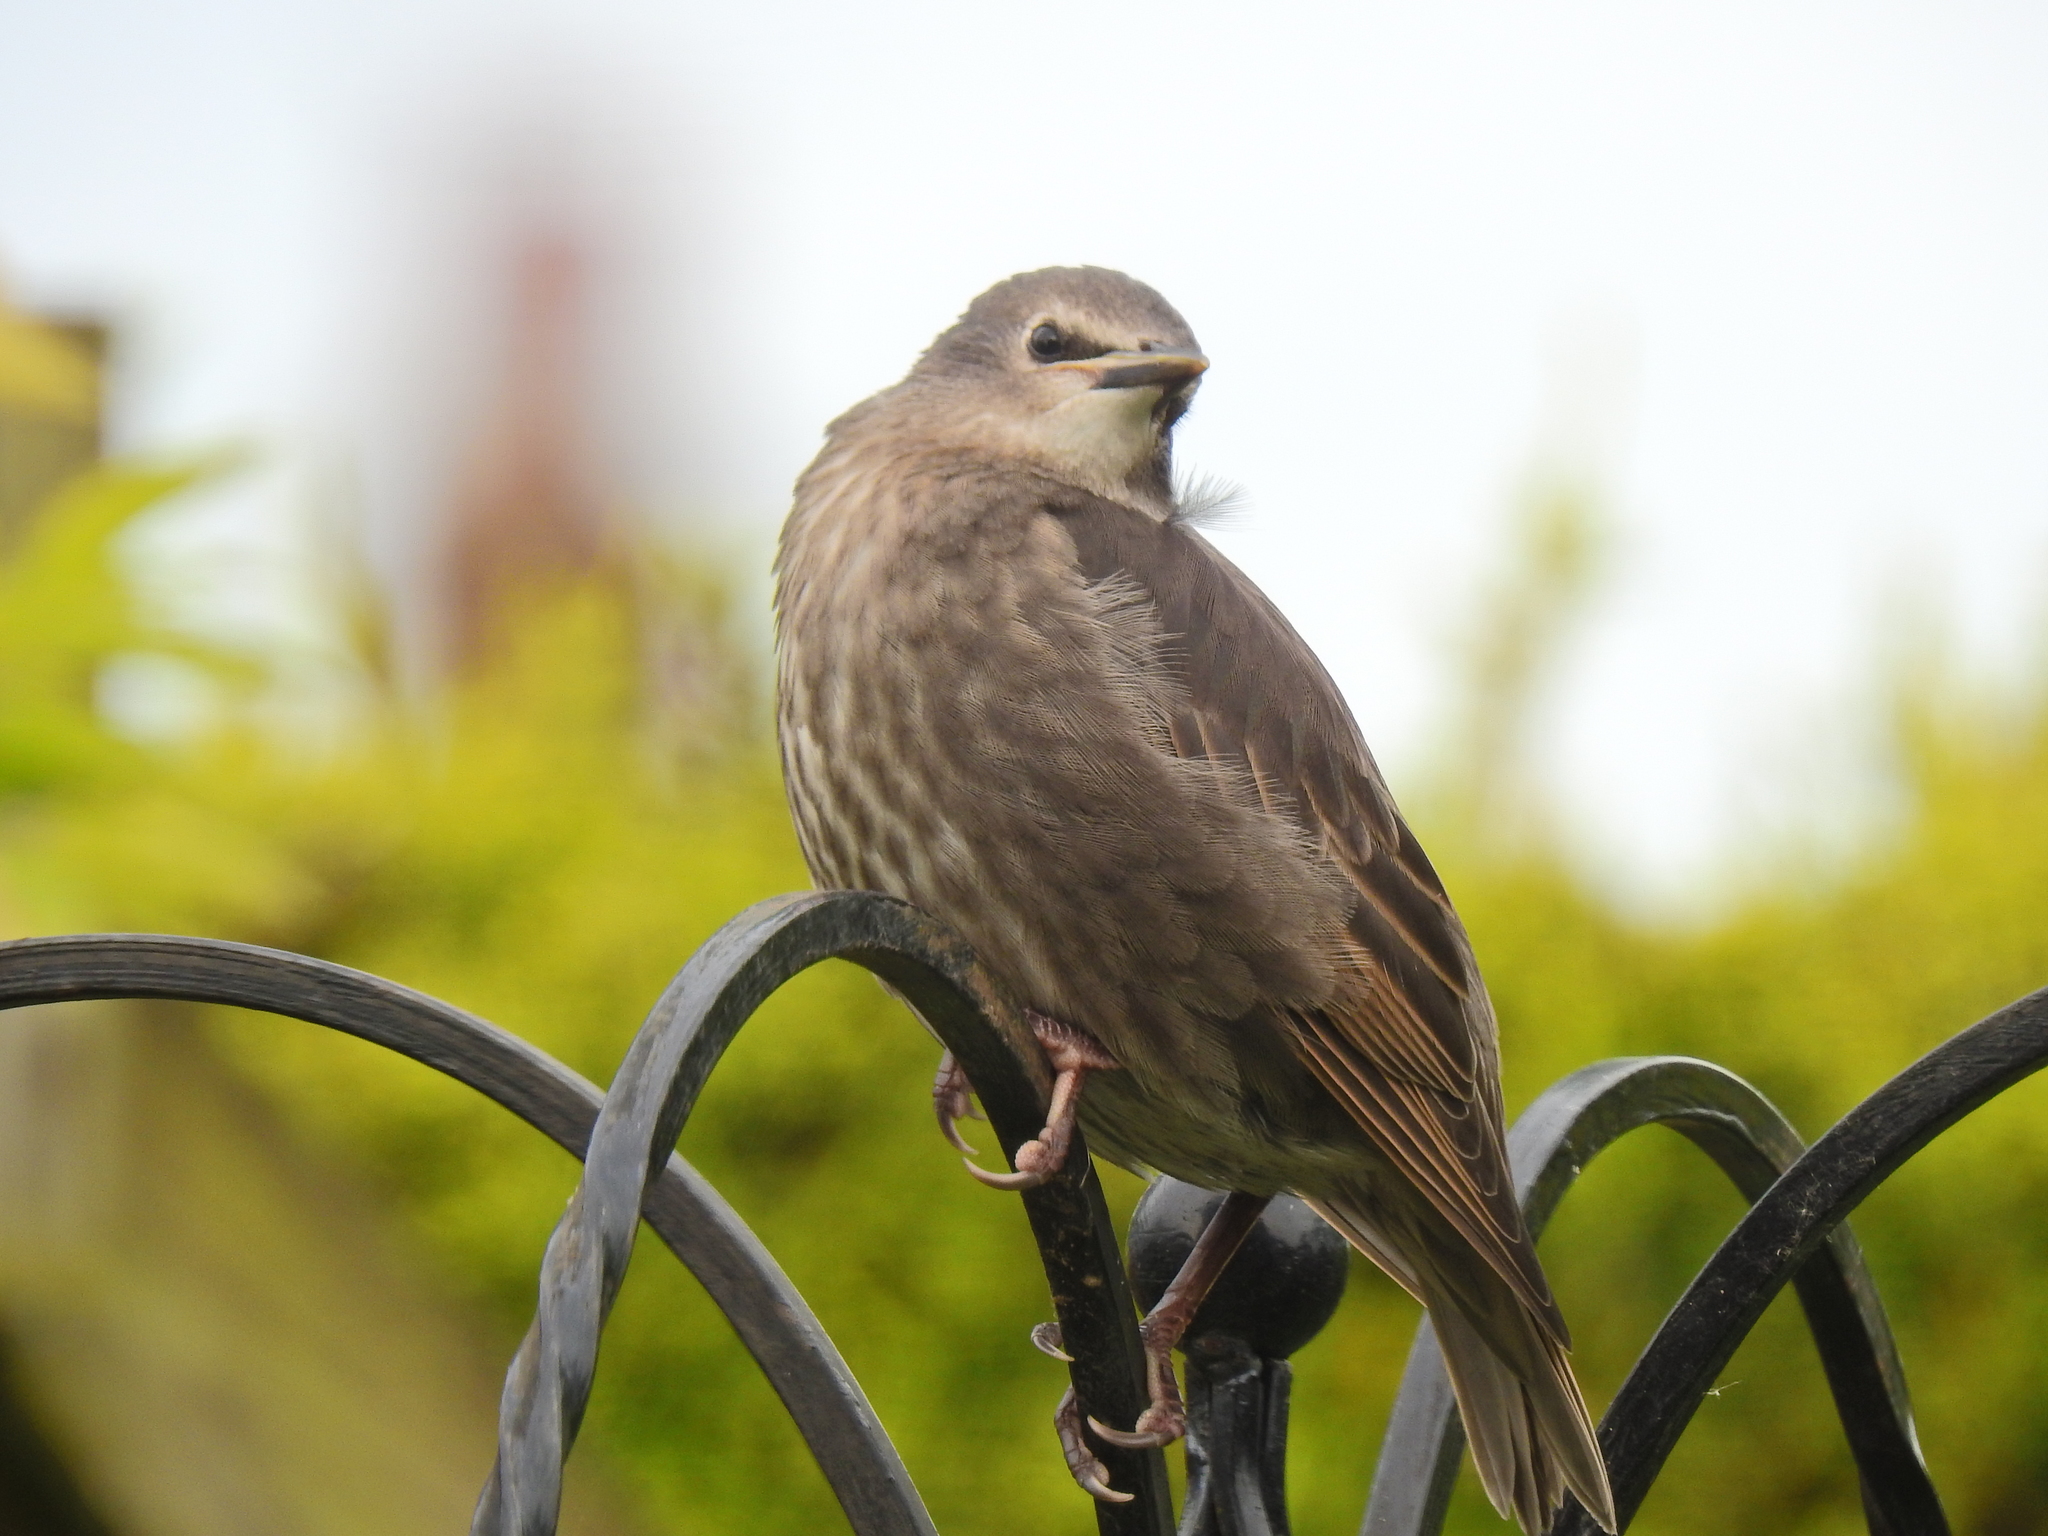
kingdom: Animalia
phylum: Chordata
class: Aves
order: Passeriformes
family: Sturnidae
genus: Sturnus
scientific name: Sturnus vulgaris
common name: Common starling
